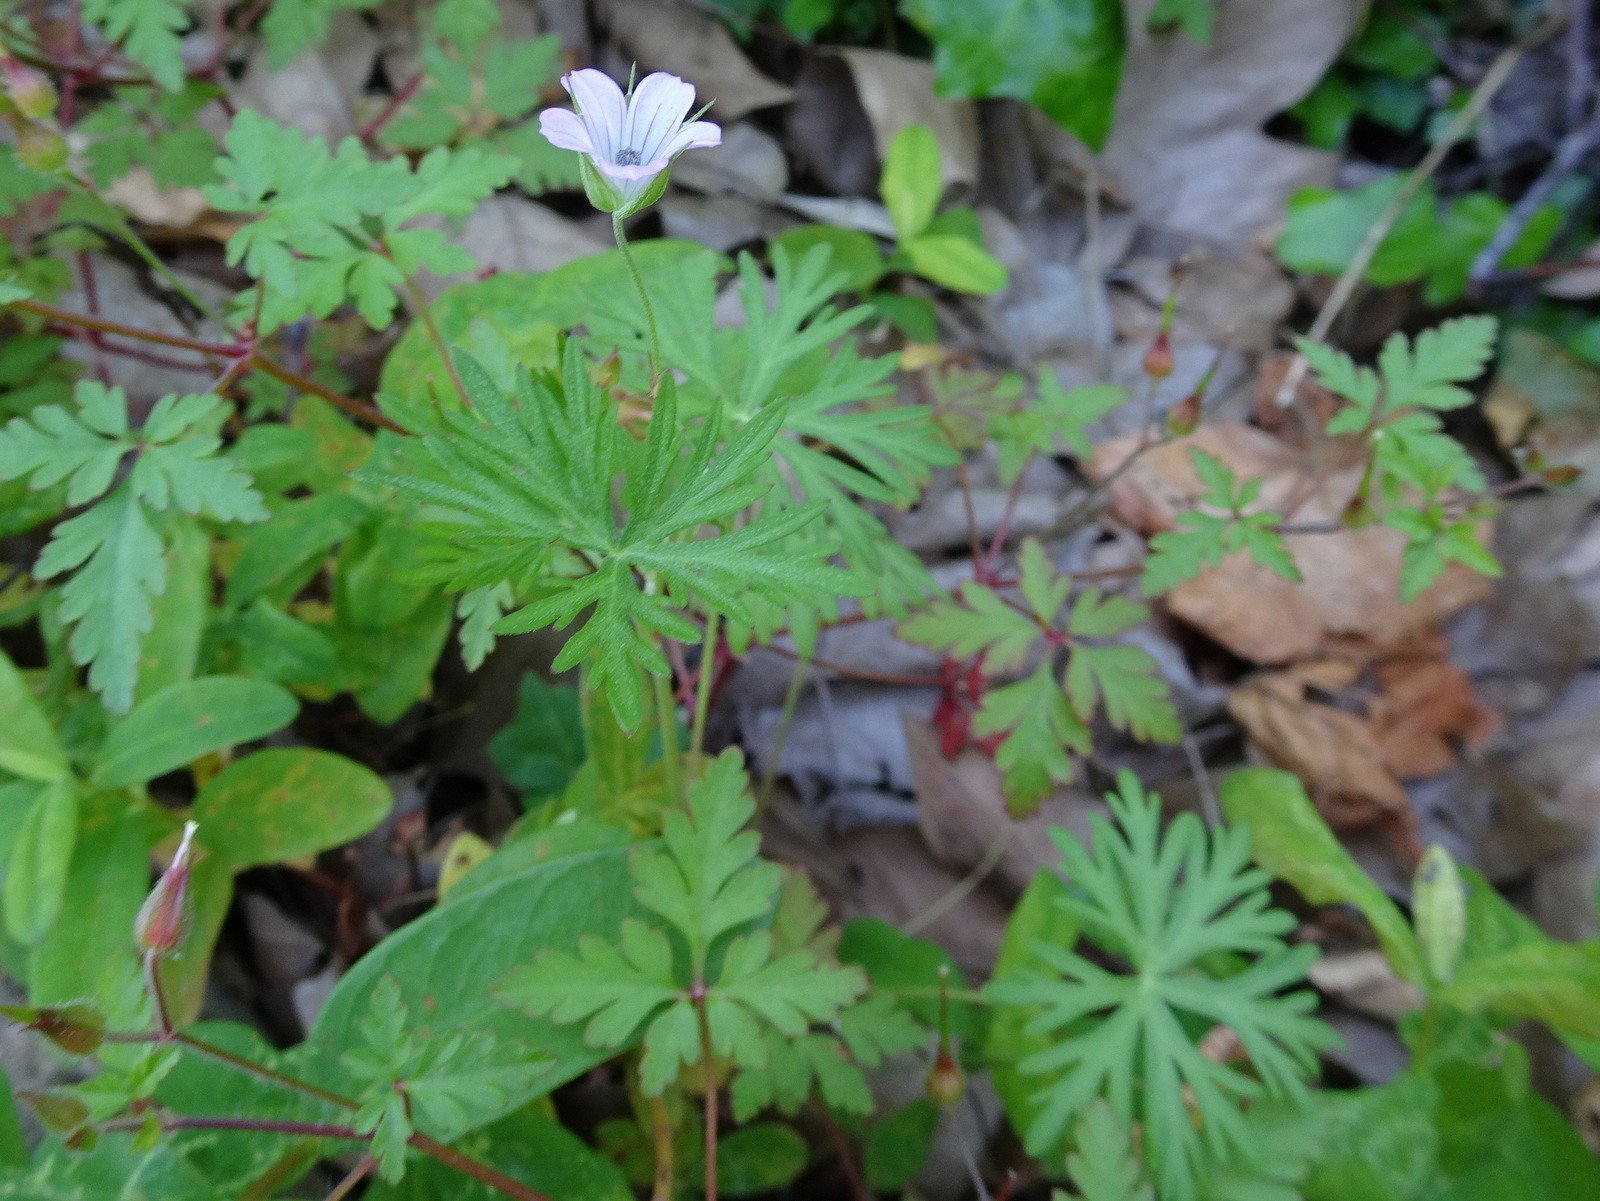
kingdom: Plantae
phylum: Tracheophyta
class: Magnoliopsida
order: Geraniales
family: Geraniaceae
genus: Geranium
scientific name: Geranium columbinum
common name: Long-stalked crane's-bill
